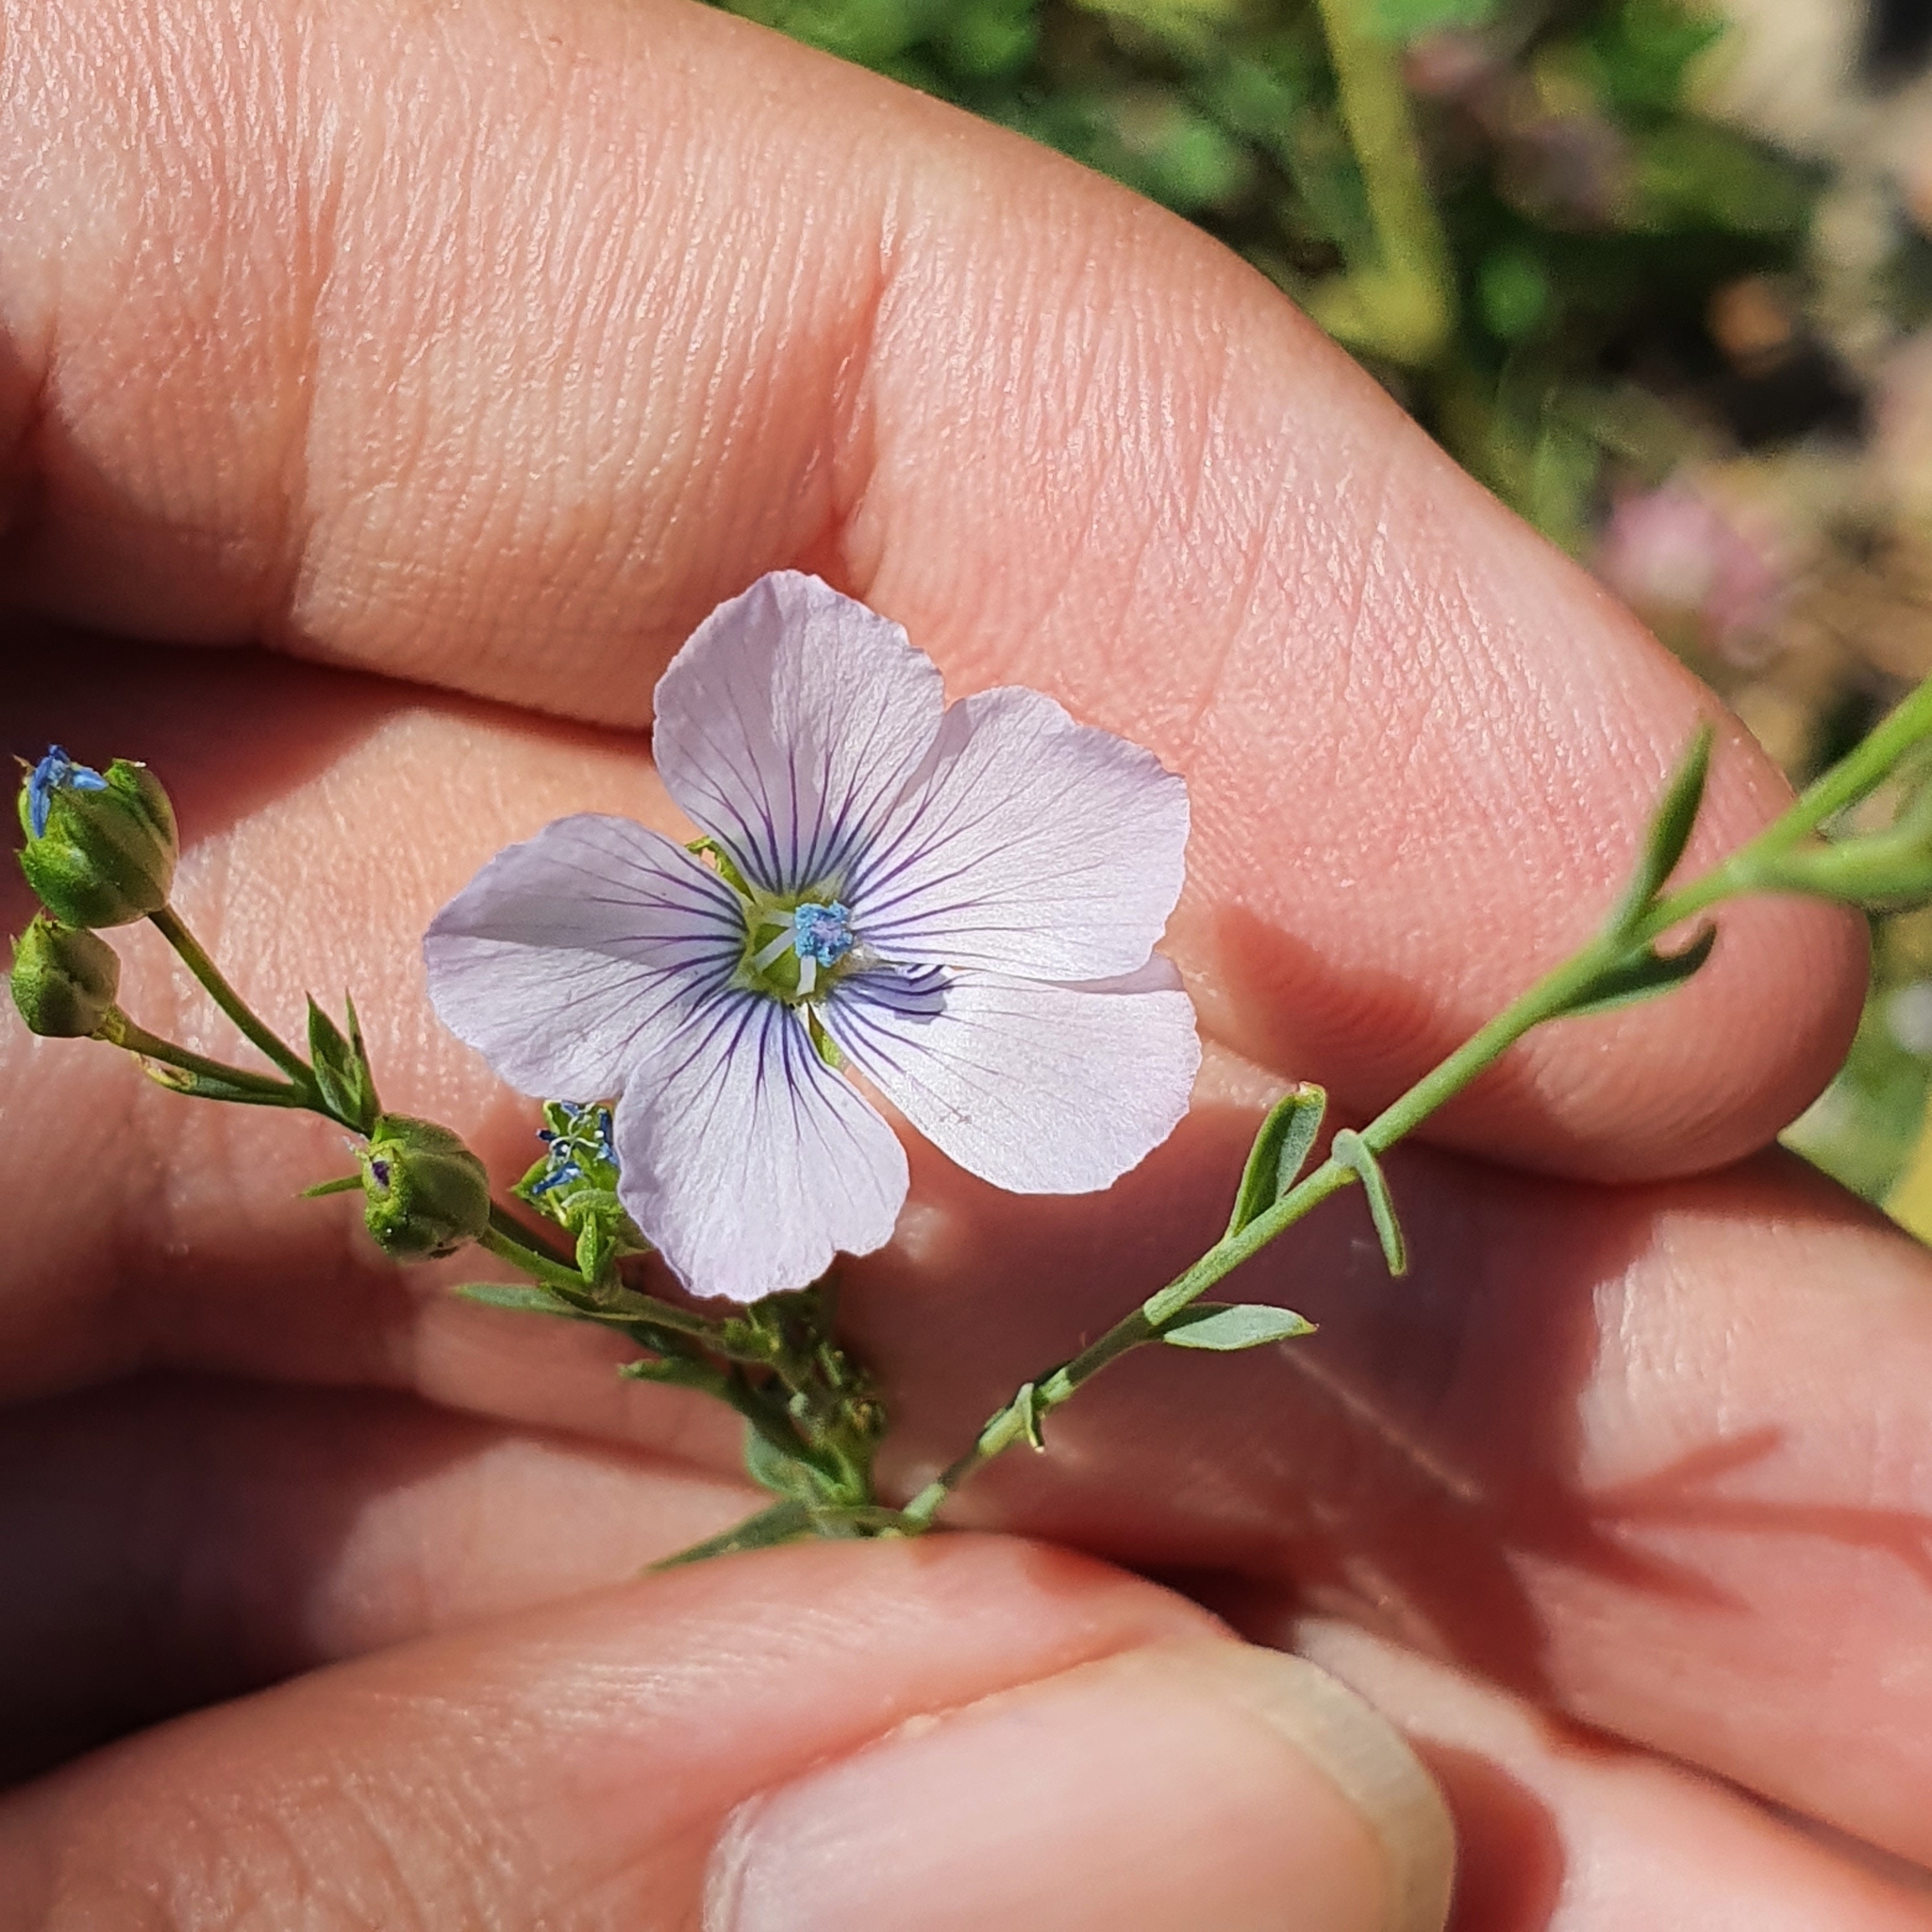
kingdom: Plantae
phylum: Tracheophyta
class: Magnoliopsida
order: Malpighiales
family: Linaceae
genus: Linum
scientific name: Linum bienne
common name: Pale flax
